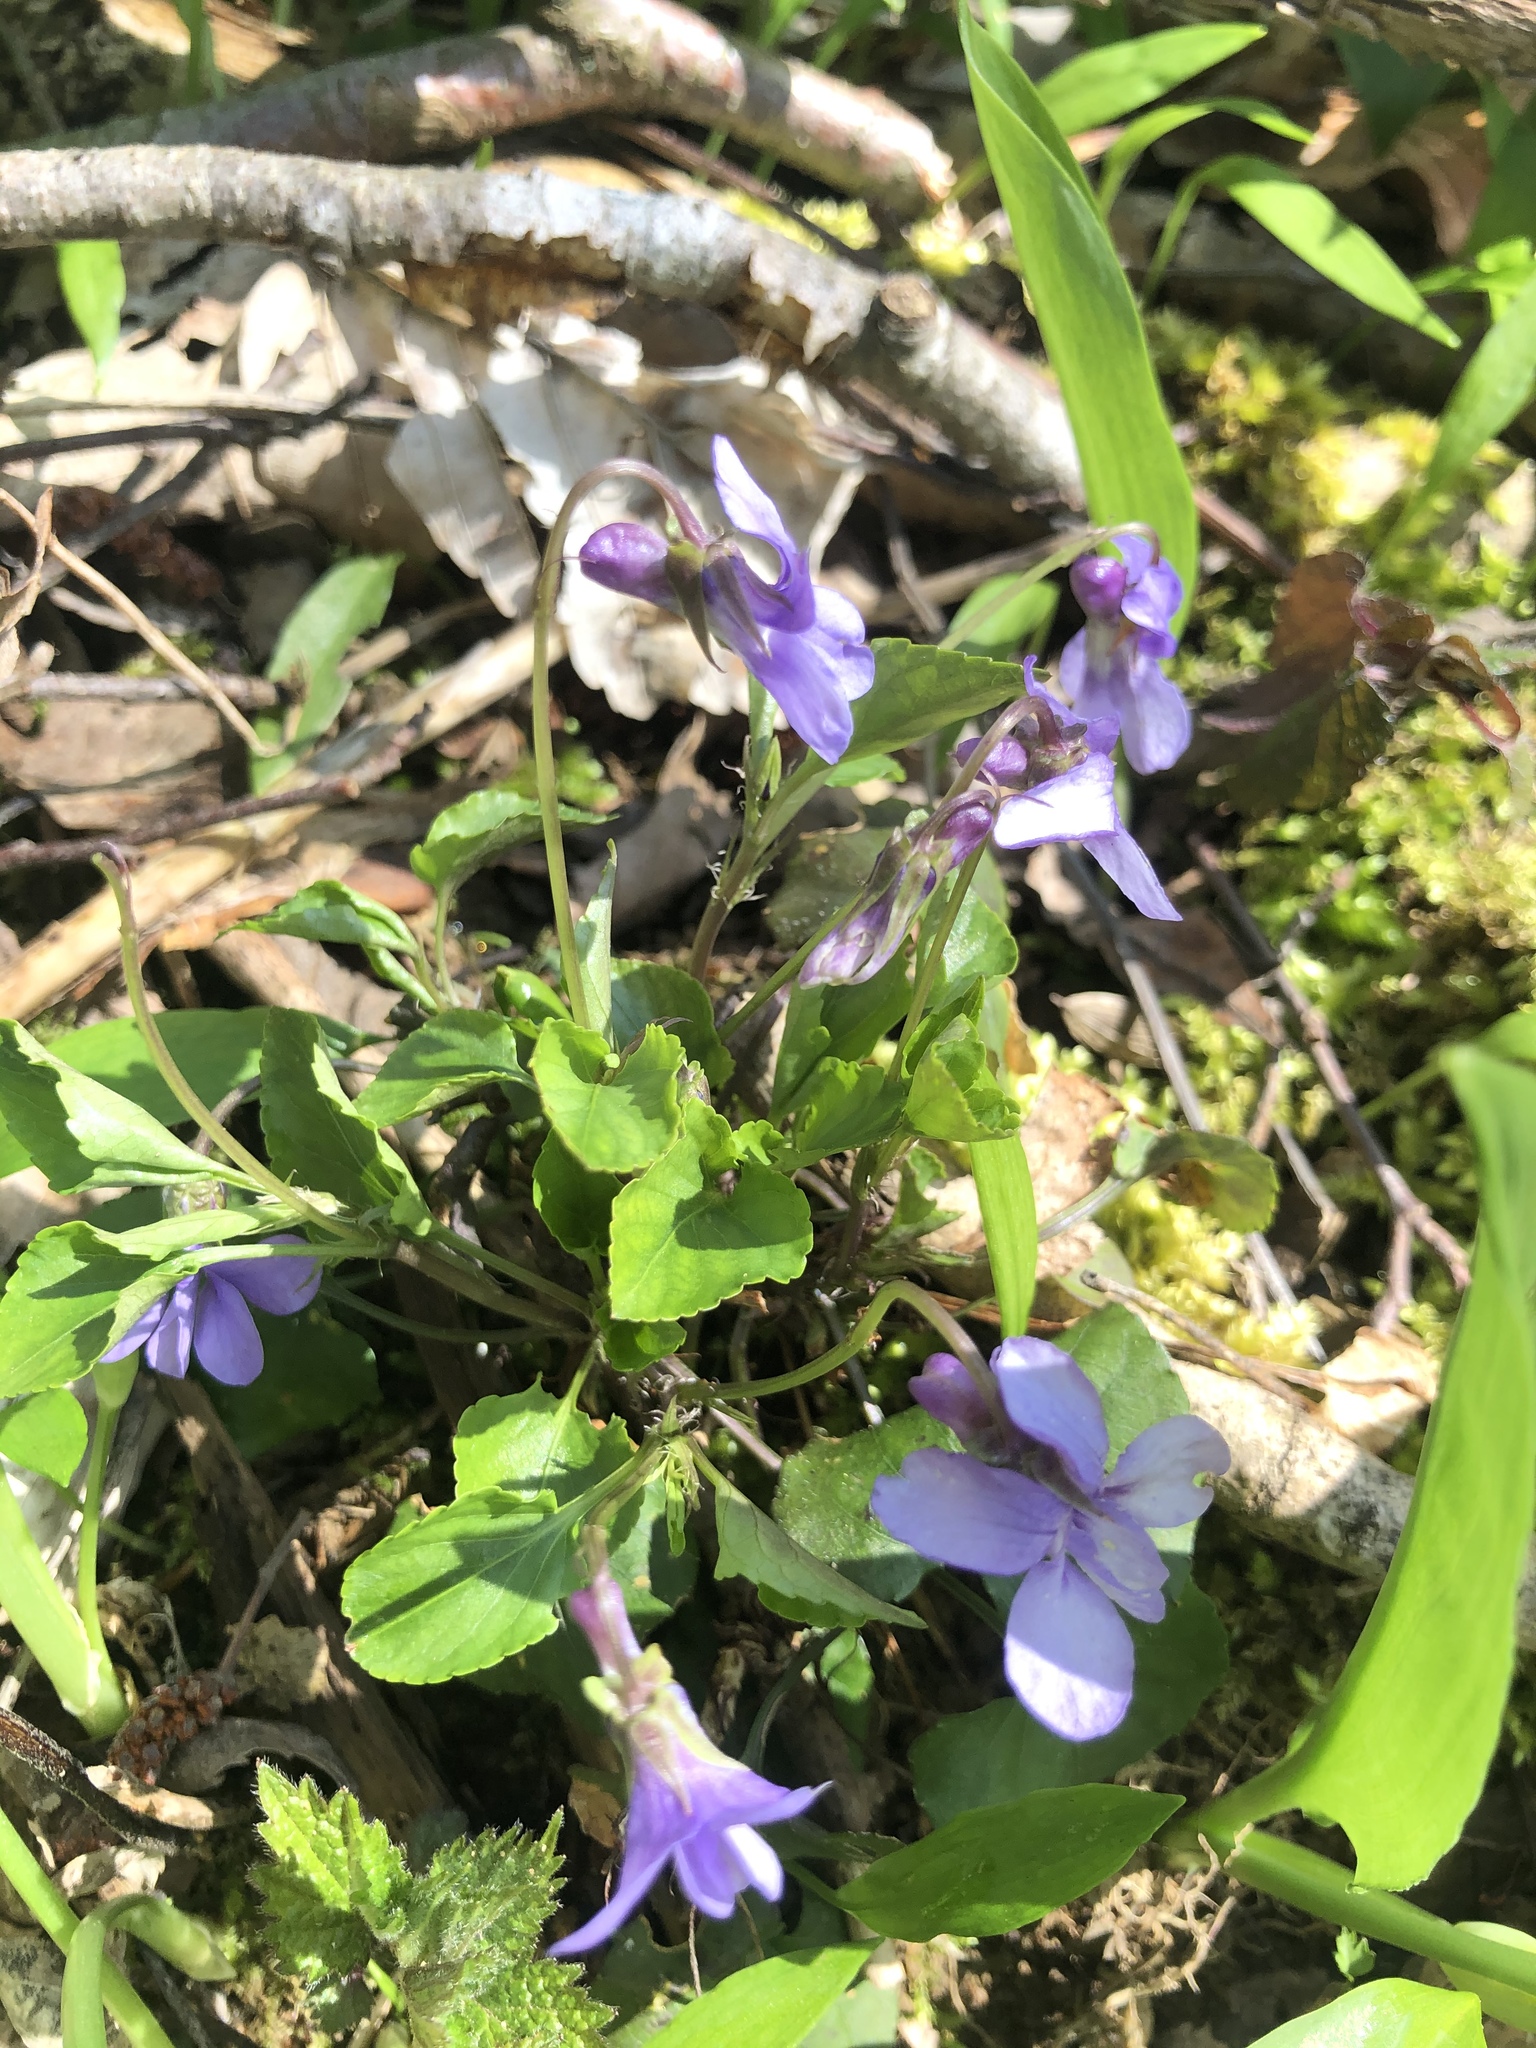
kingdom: Plantae
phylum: Tracheophyta
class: Magnoliopsida
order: Malpighiales
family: Violaceae
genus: Viola
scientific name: Viola reichenbachiana
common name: Early dog-violet
